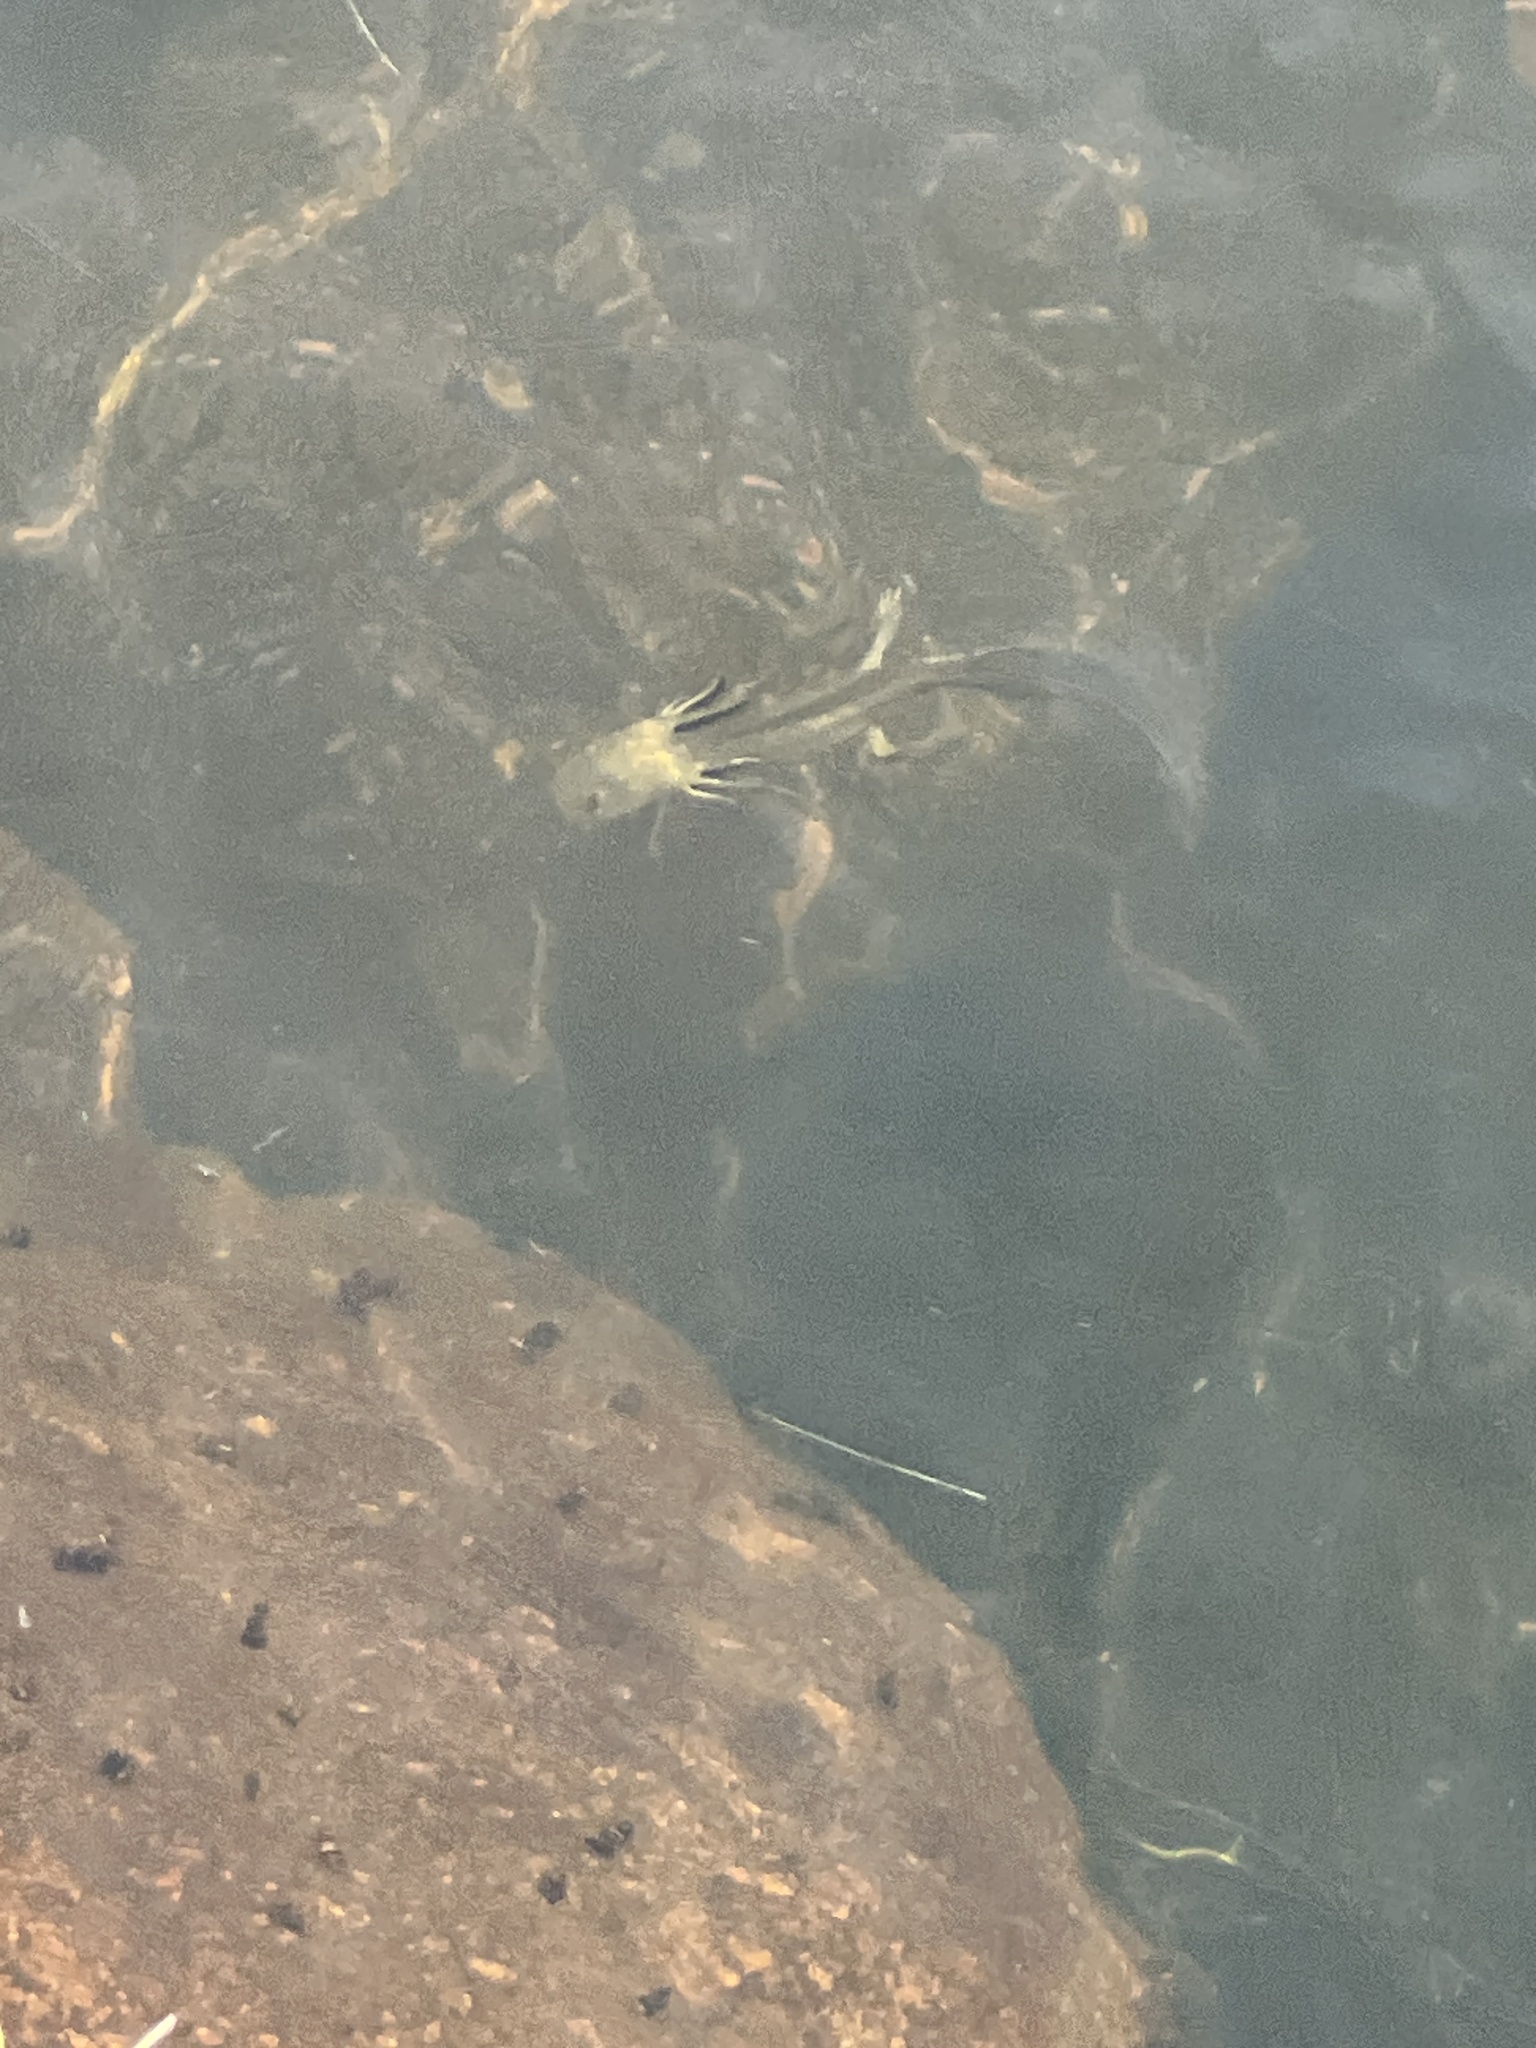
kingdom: Animalia
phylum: Chordata
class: Amphibia
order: Caudata
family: Ambystomatidae
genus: Ambystoma
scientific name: Ambystoma mavortium
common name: Western tiger salamander
